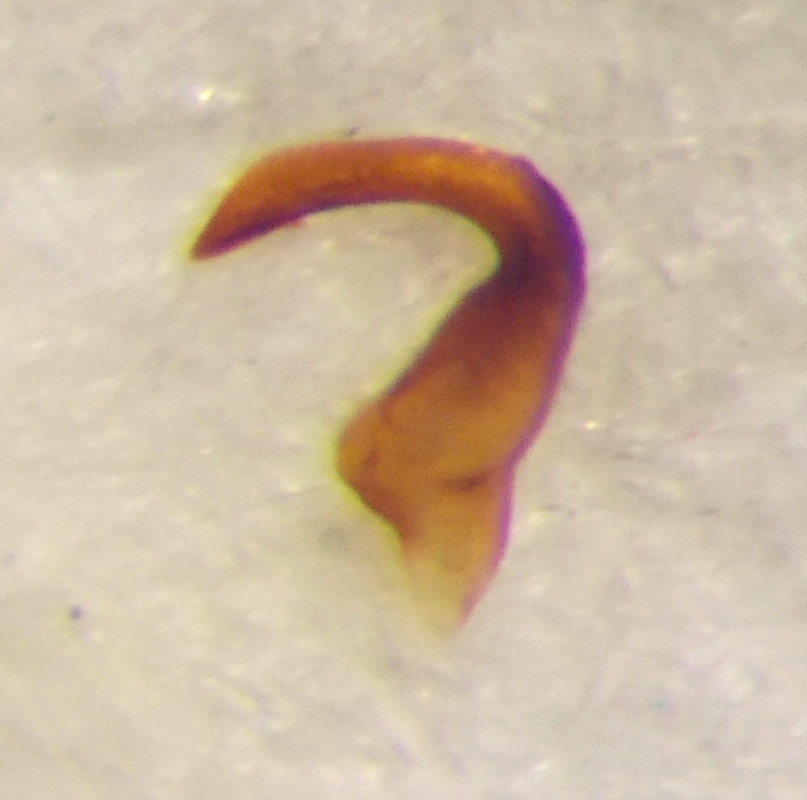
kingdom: Animalia
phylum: Arthropoda
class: Insecta
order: Hemiptera
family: Miridae
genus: Agnocoris
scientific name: Agnocoris rubicundus
